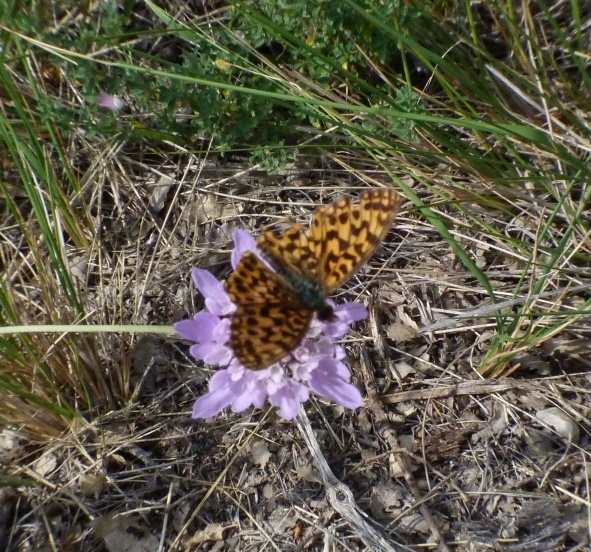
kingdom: Animalia
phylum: Arthropoda
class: Insecta
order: Lepidoptera
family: Nymphalidae
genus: Boloria
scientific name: Boloria dia
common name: Weaver's fritillary
